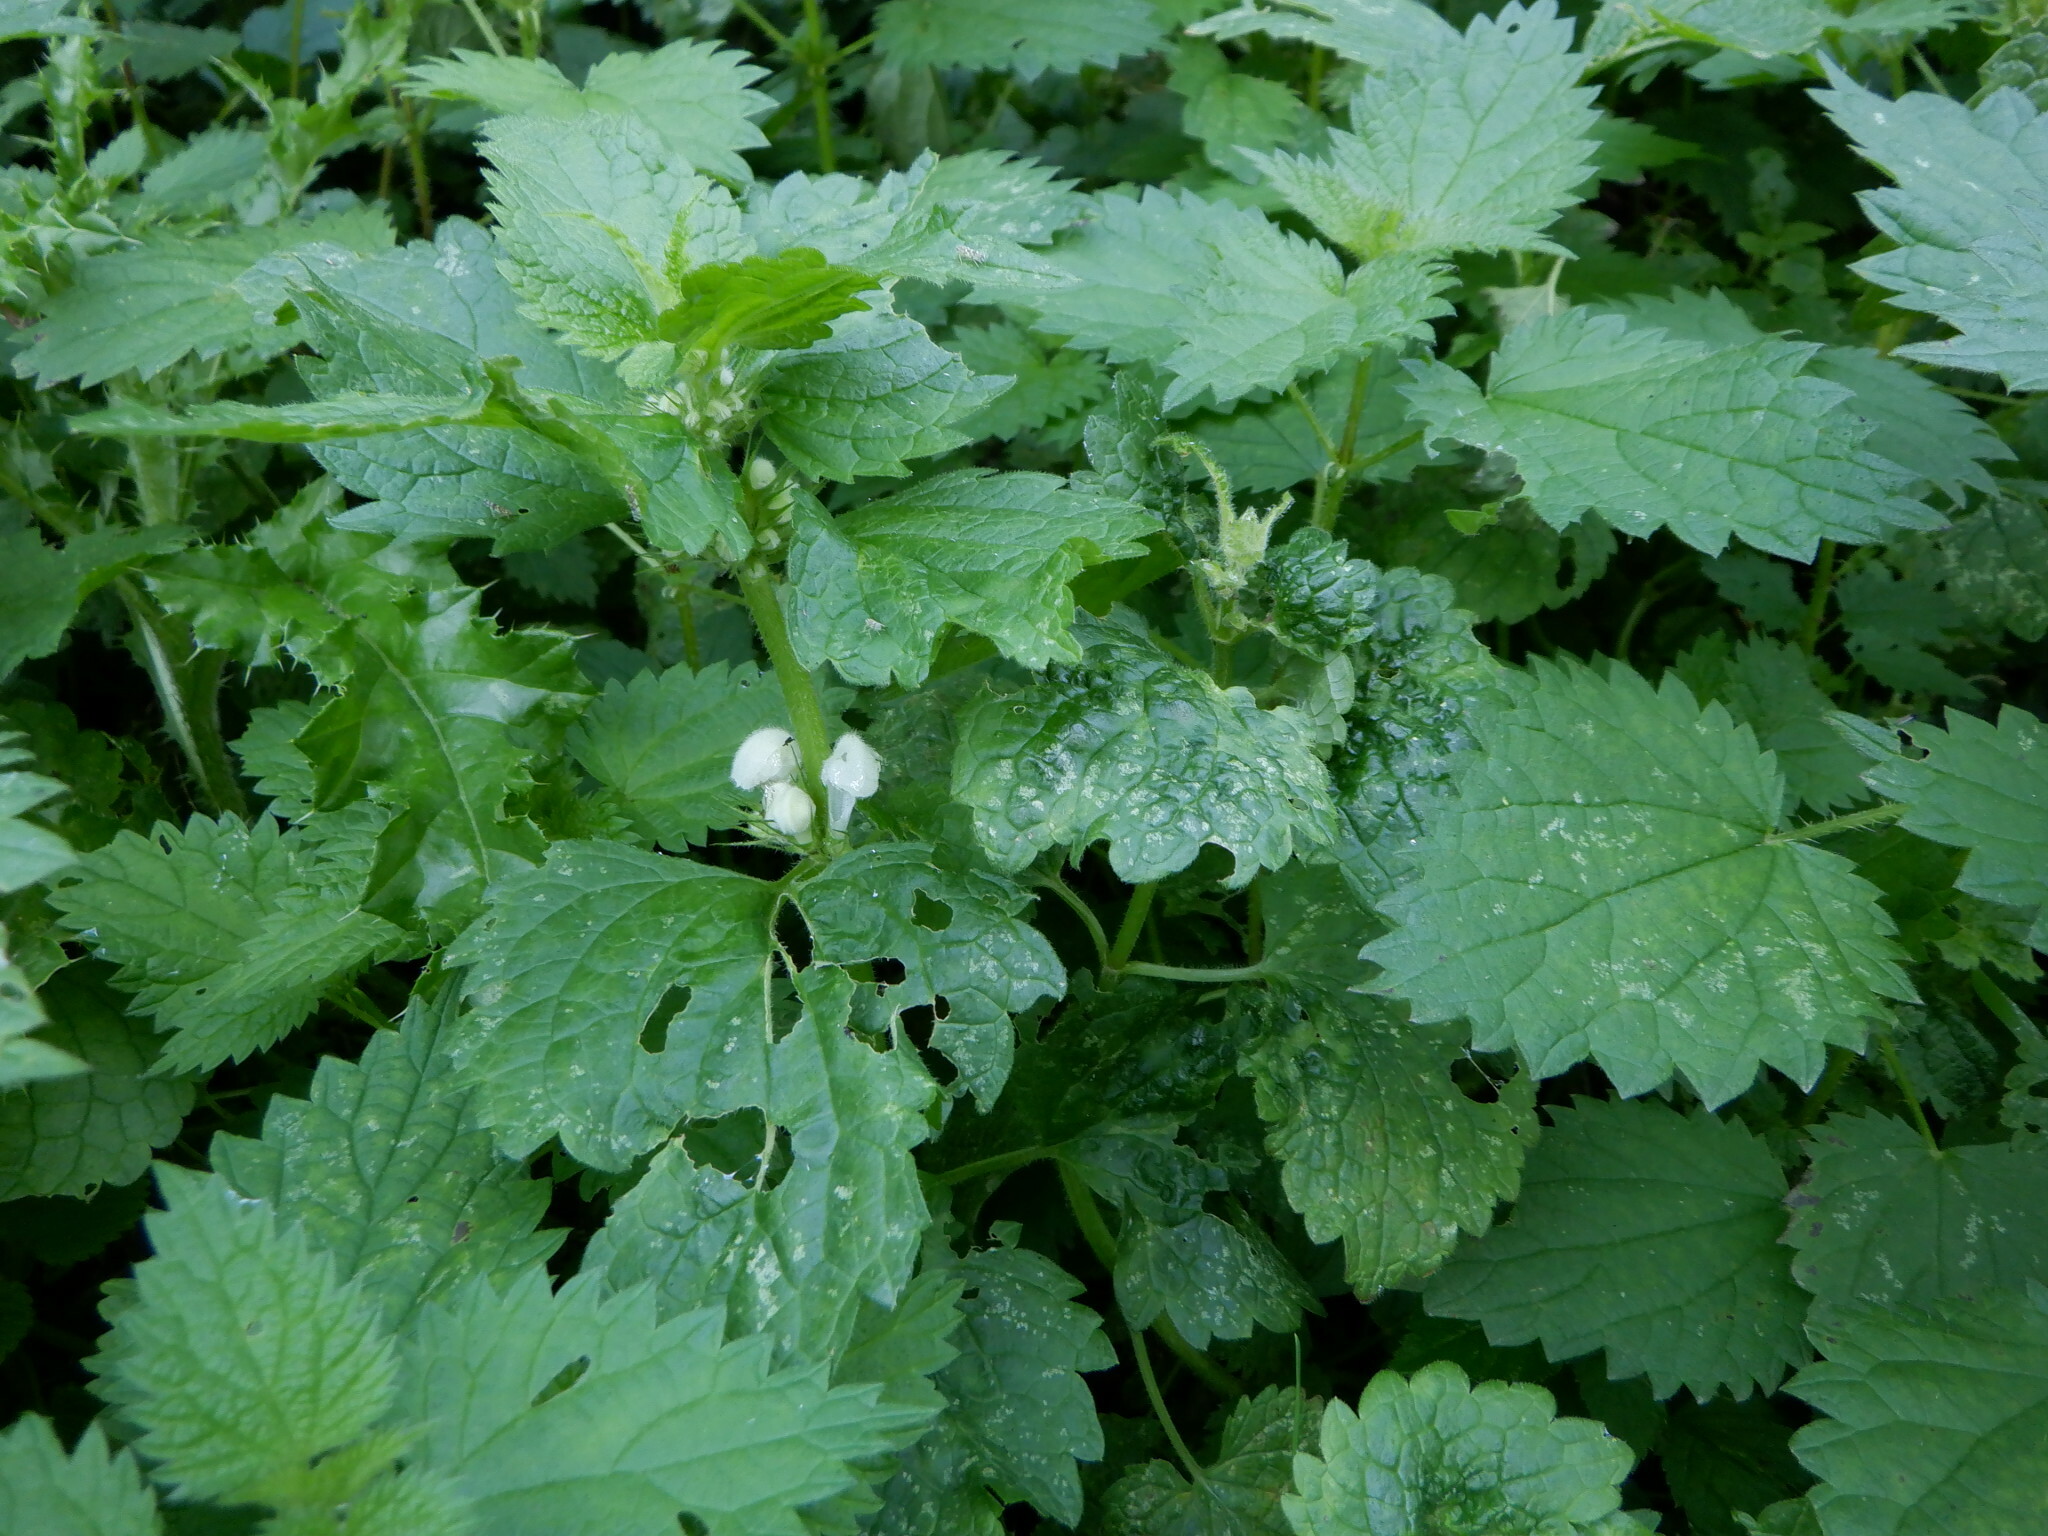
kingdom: Plantae
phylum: Tracheophyta
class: Magnoliopsida
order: Lamiales
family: Lamiaceae
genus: Lamium
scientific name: Lamium album
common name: White dead-nettle
